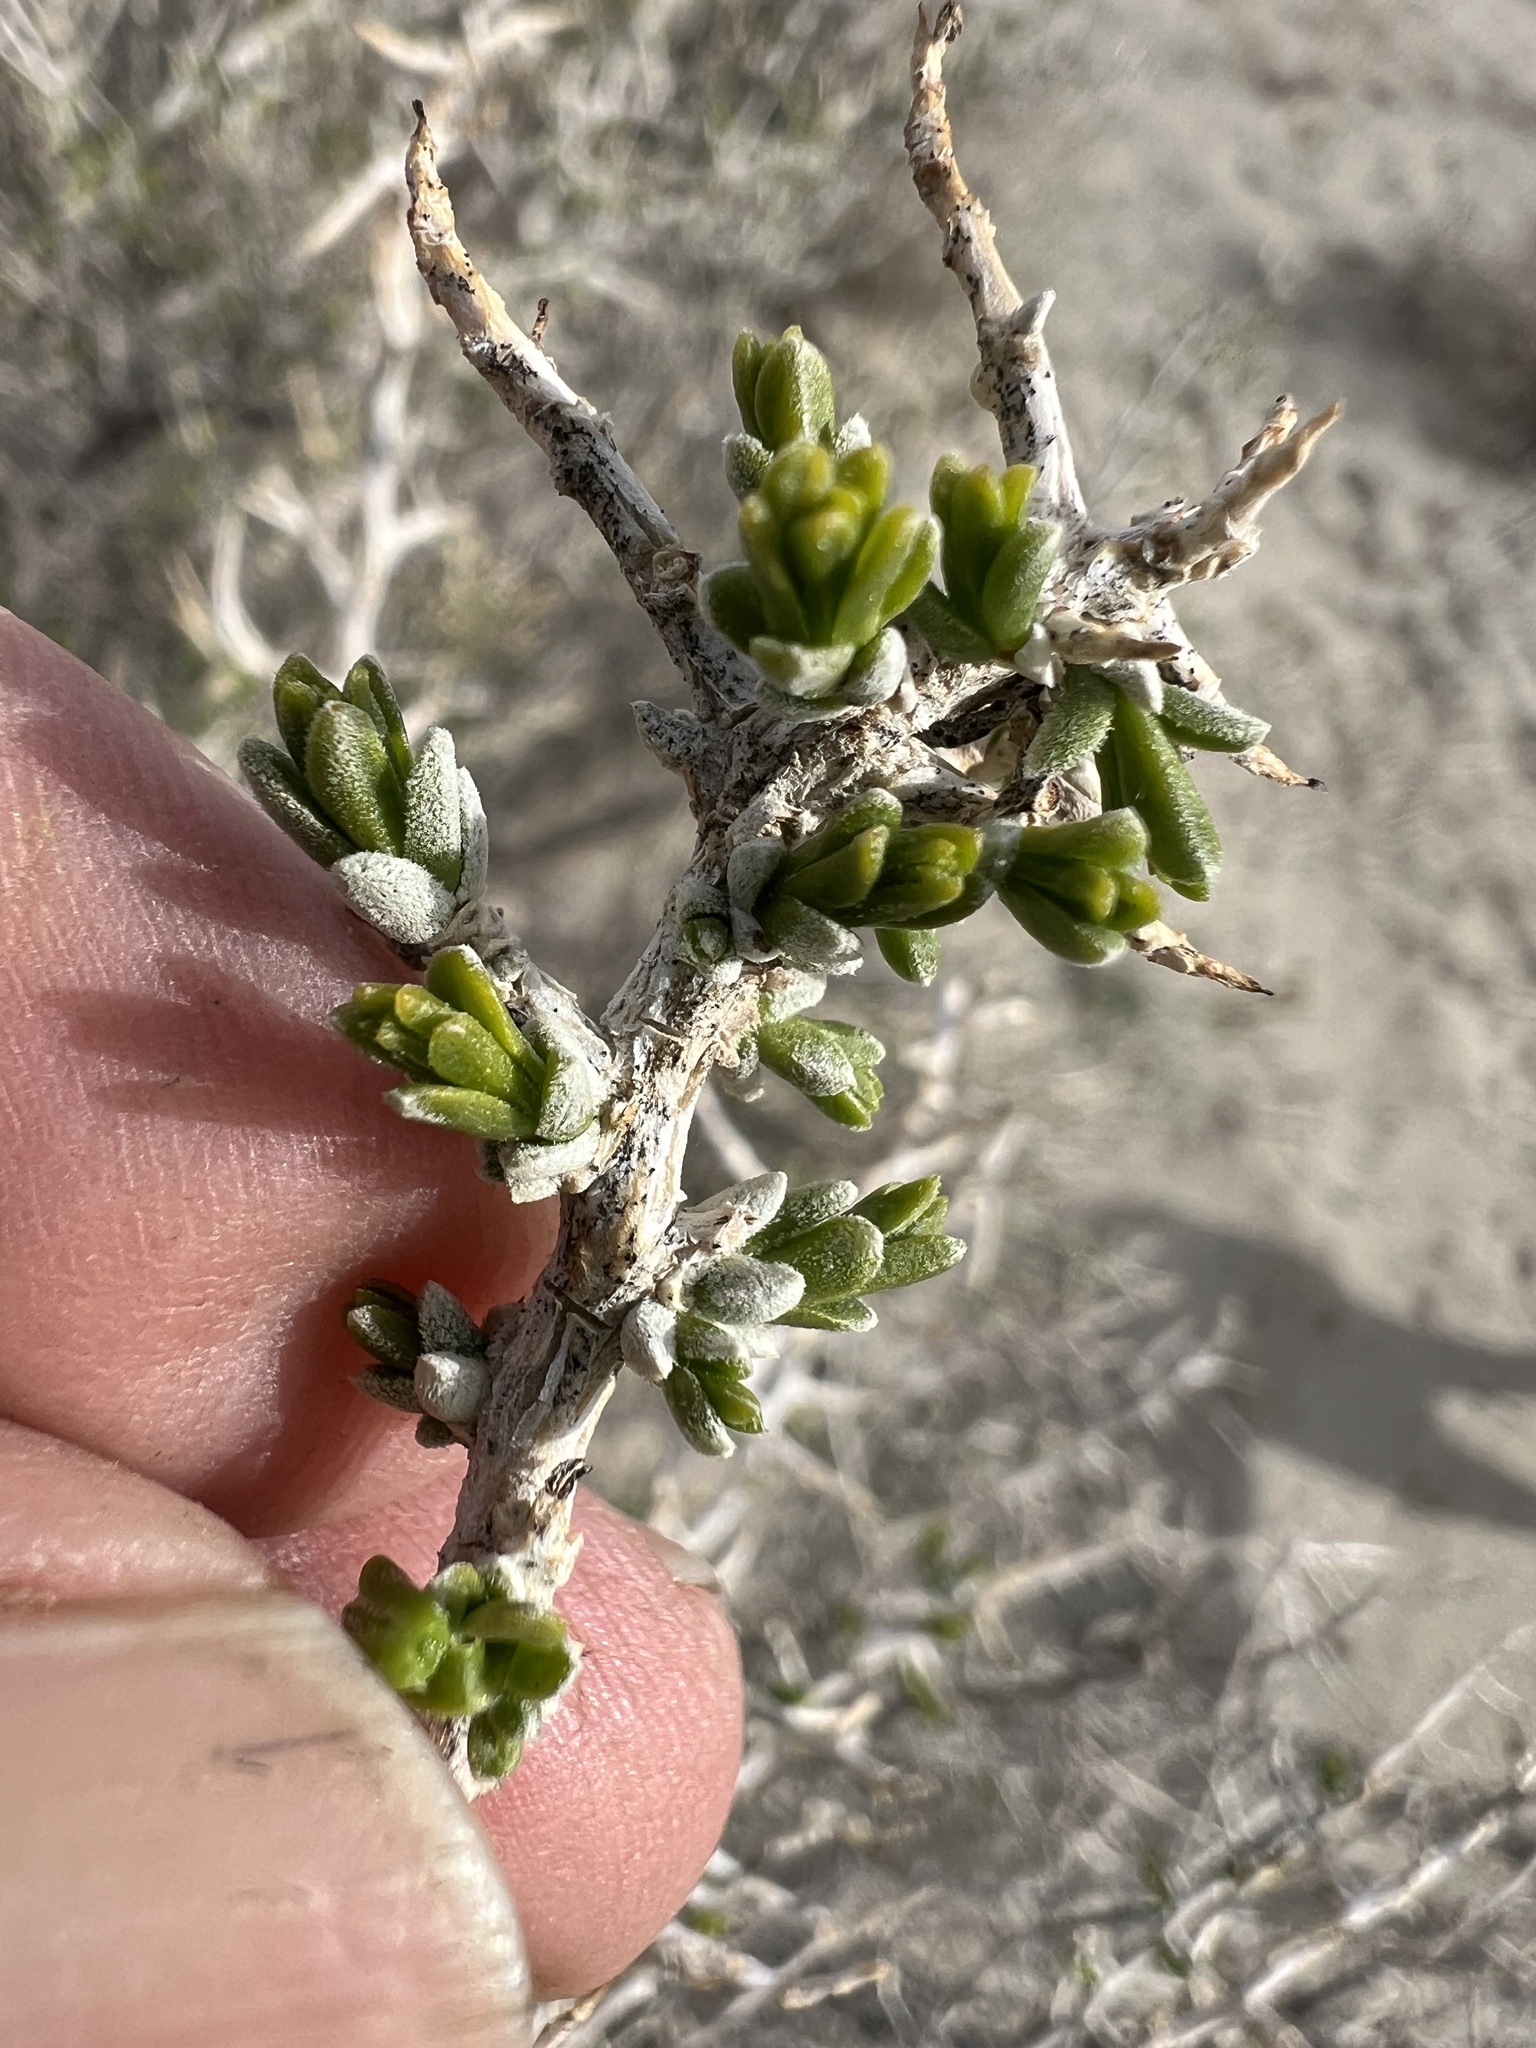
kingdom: Plantae
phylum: Tracheophyta
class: Magnoliopsida
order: Caryophyllales
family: Sarcobataceae
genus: Sarcobatus
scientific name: Sarcobatus vermiculatus
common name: Greasewood
